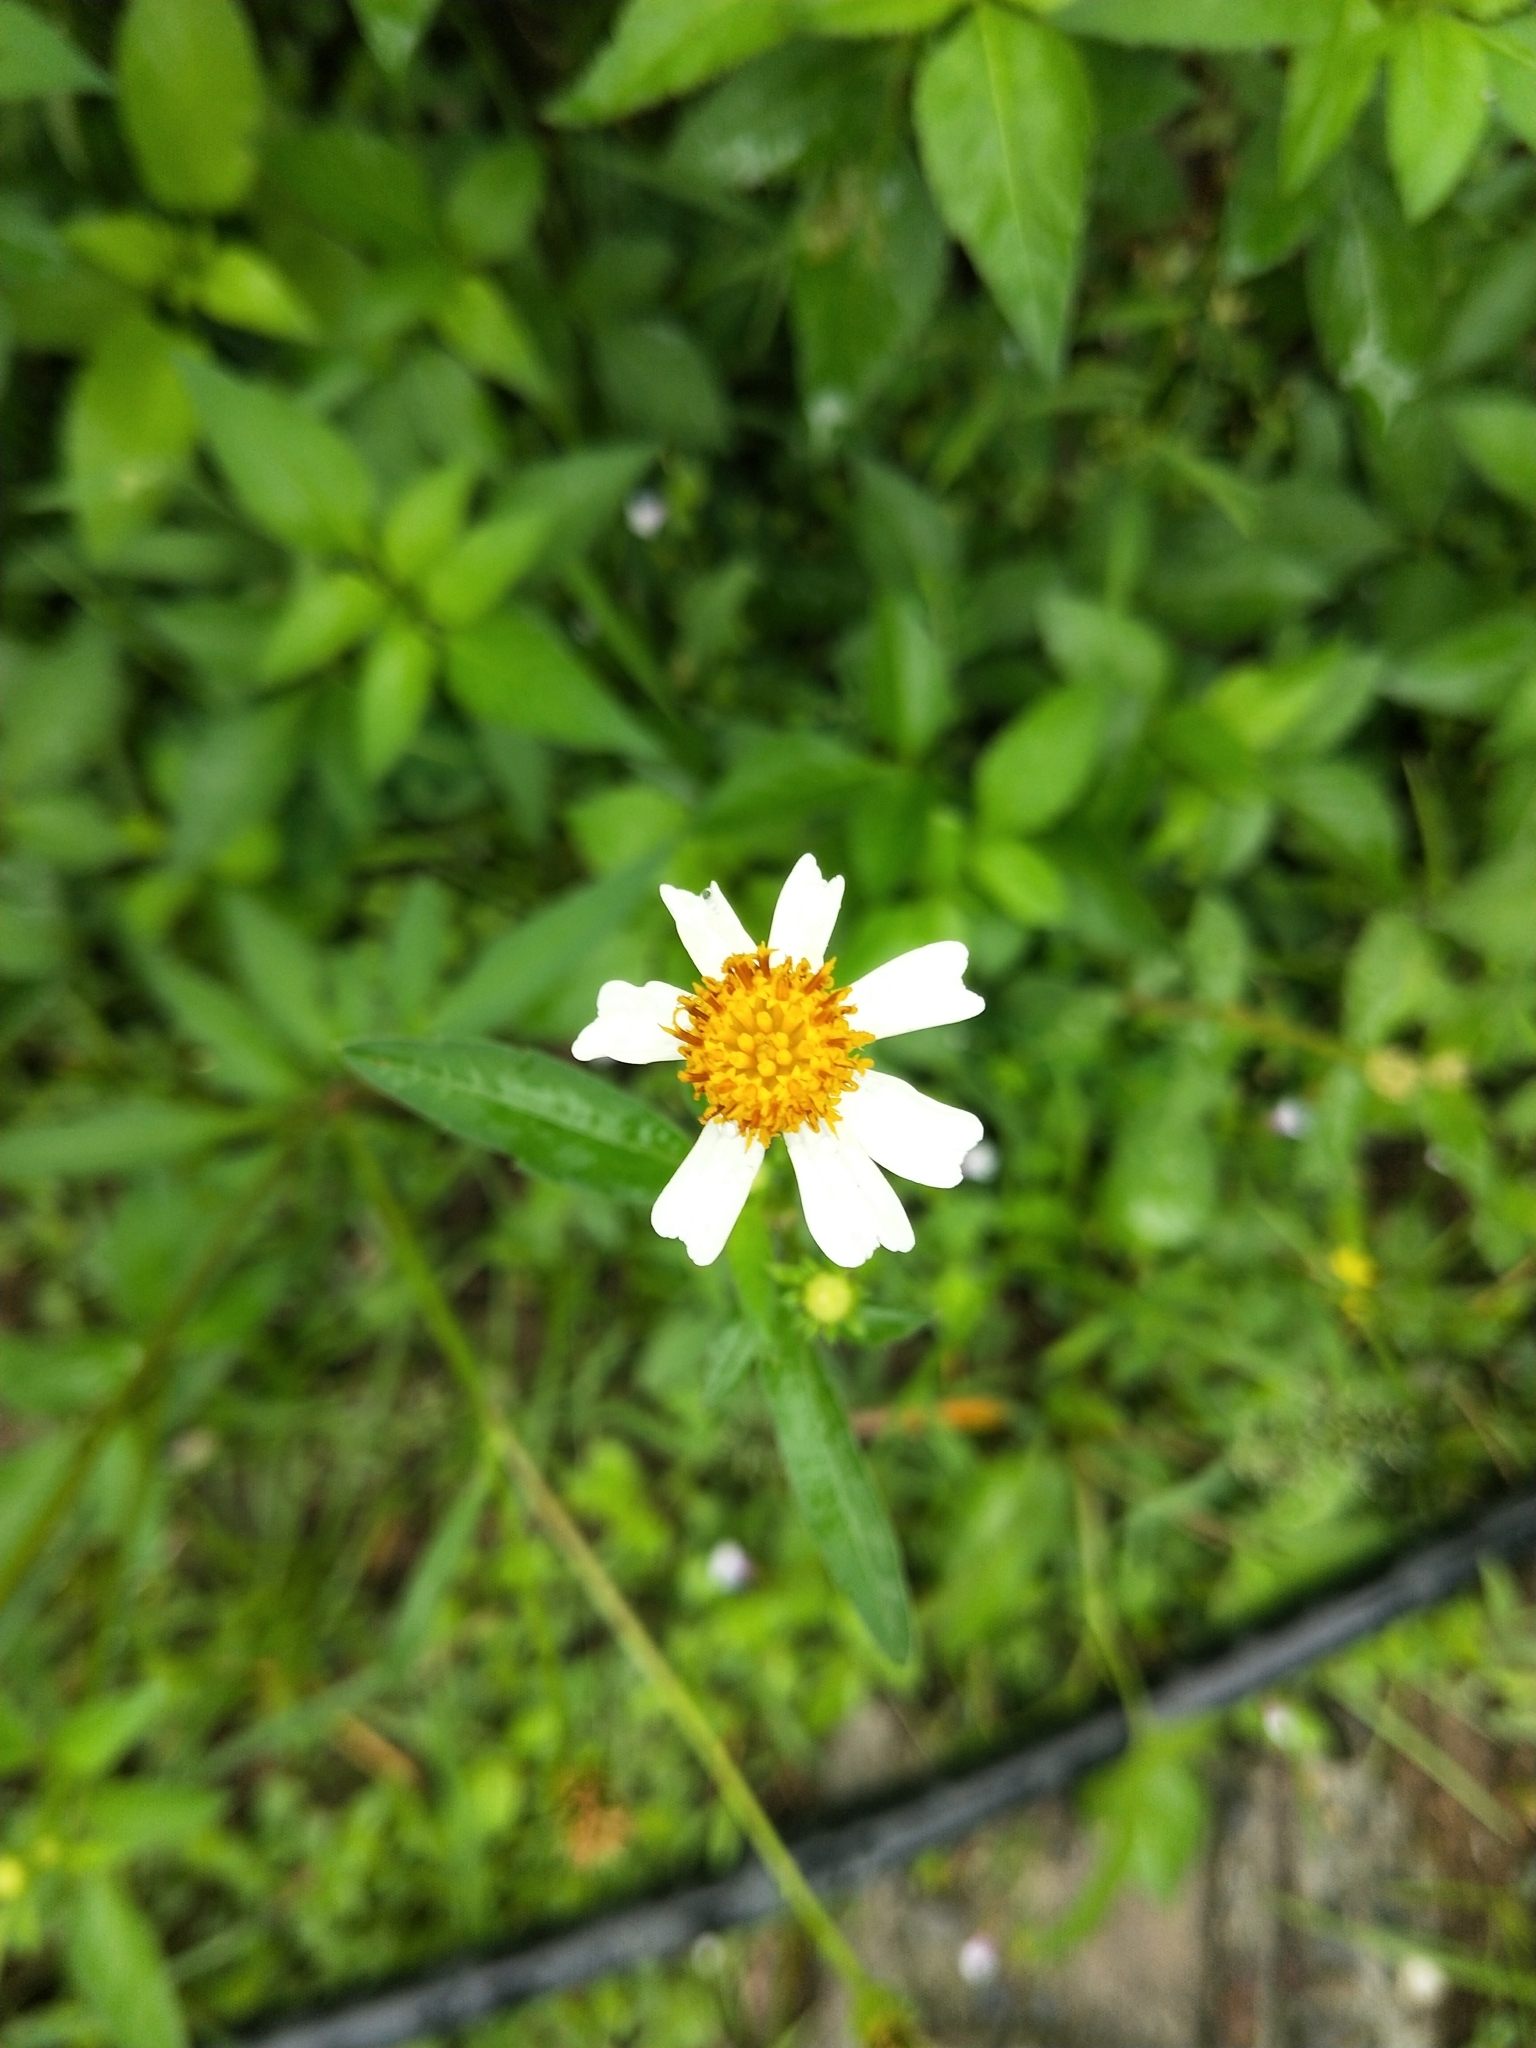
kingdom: Plantae
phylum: Tracheophyta
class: Magnoliopsida
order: Asterales
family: Asteraceae
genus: Bidens
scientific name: Bidens alba
